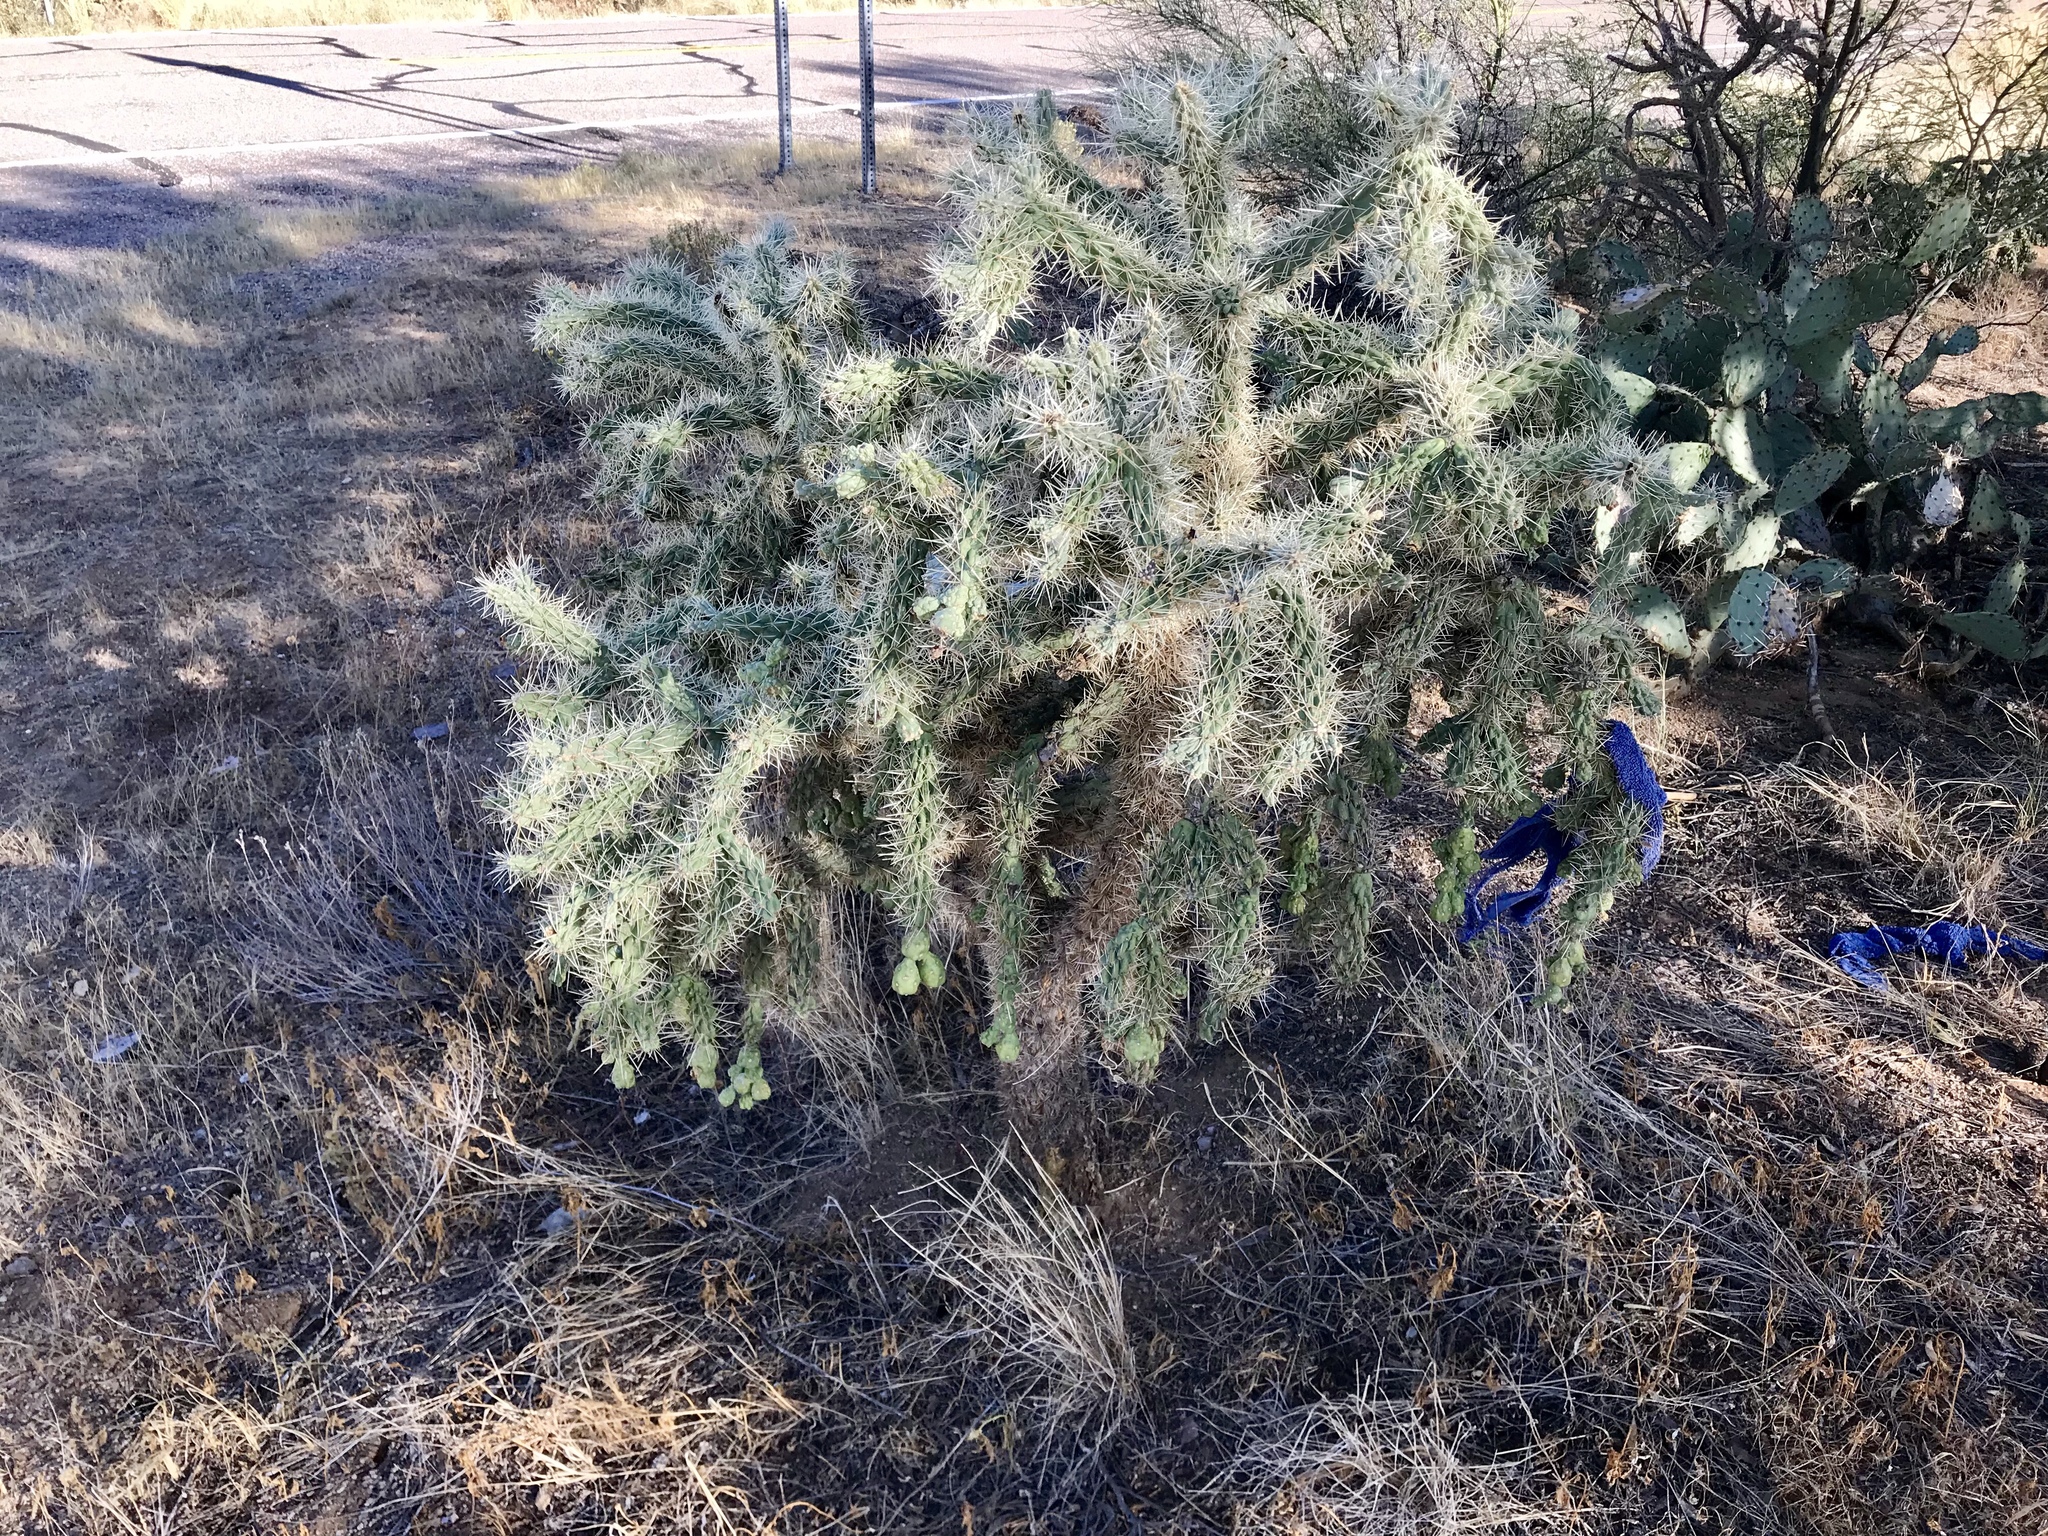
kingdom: Plantae
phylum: Tracheophyta
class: Magnoliopsida
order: Caryophyllales
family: Cactaceae
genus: Cylindropuntia
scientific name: Cylindropuntia fulgida
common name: Jumping cholla
